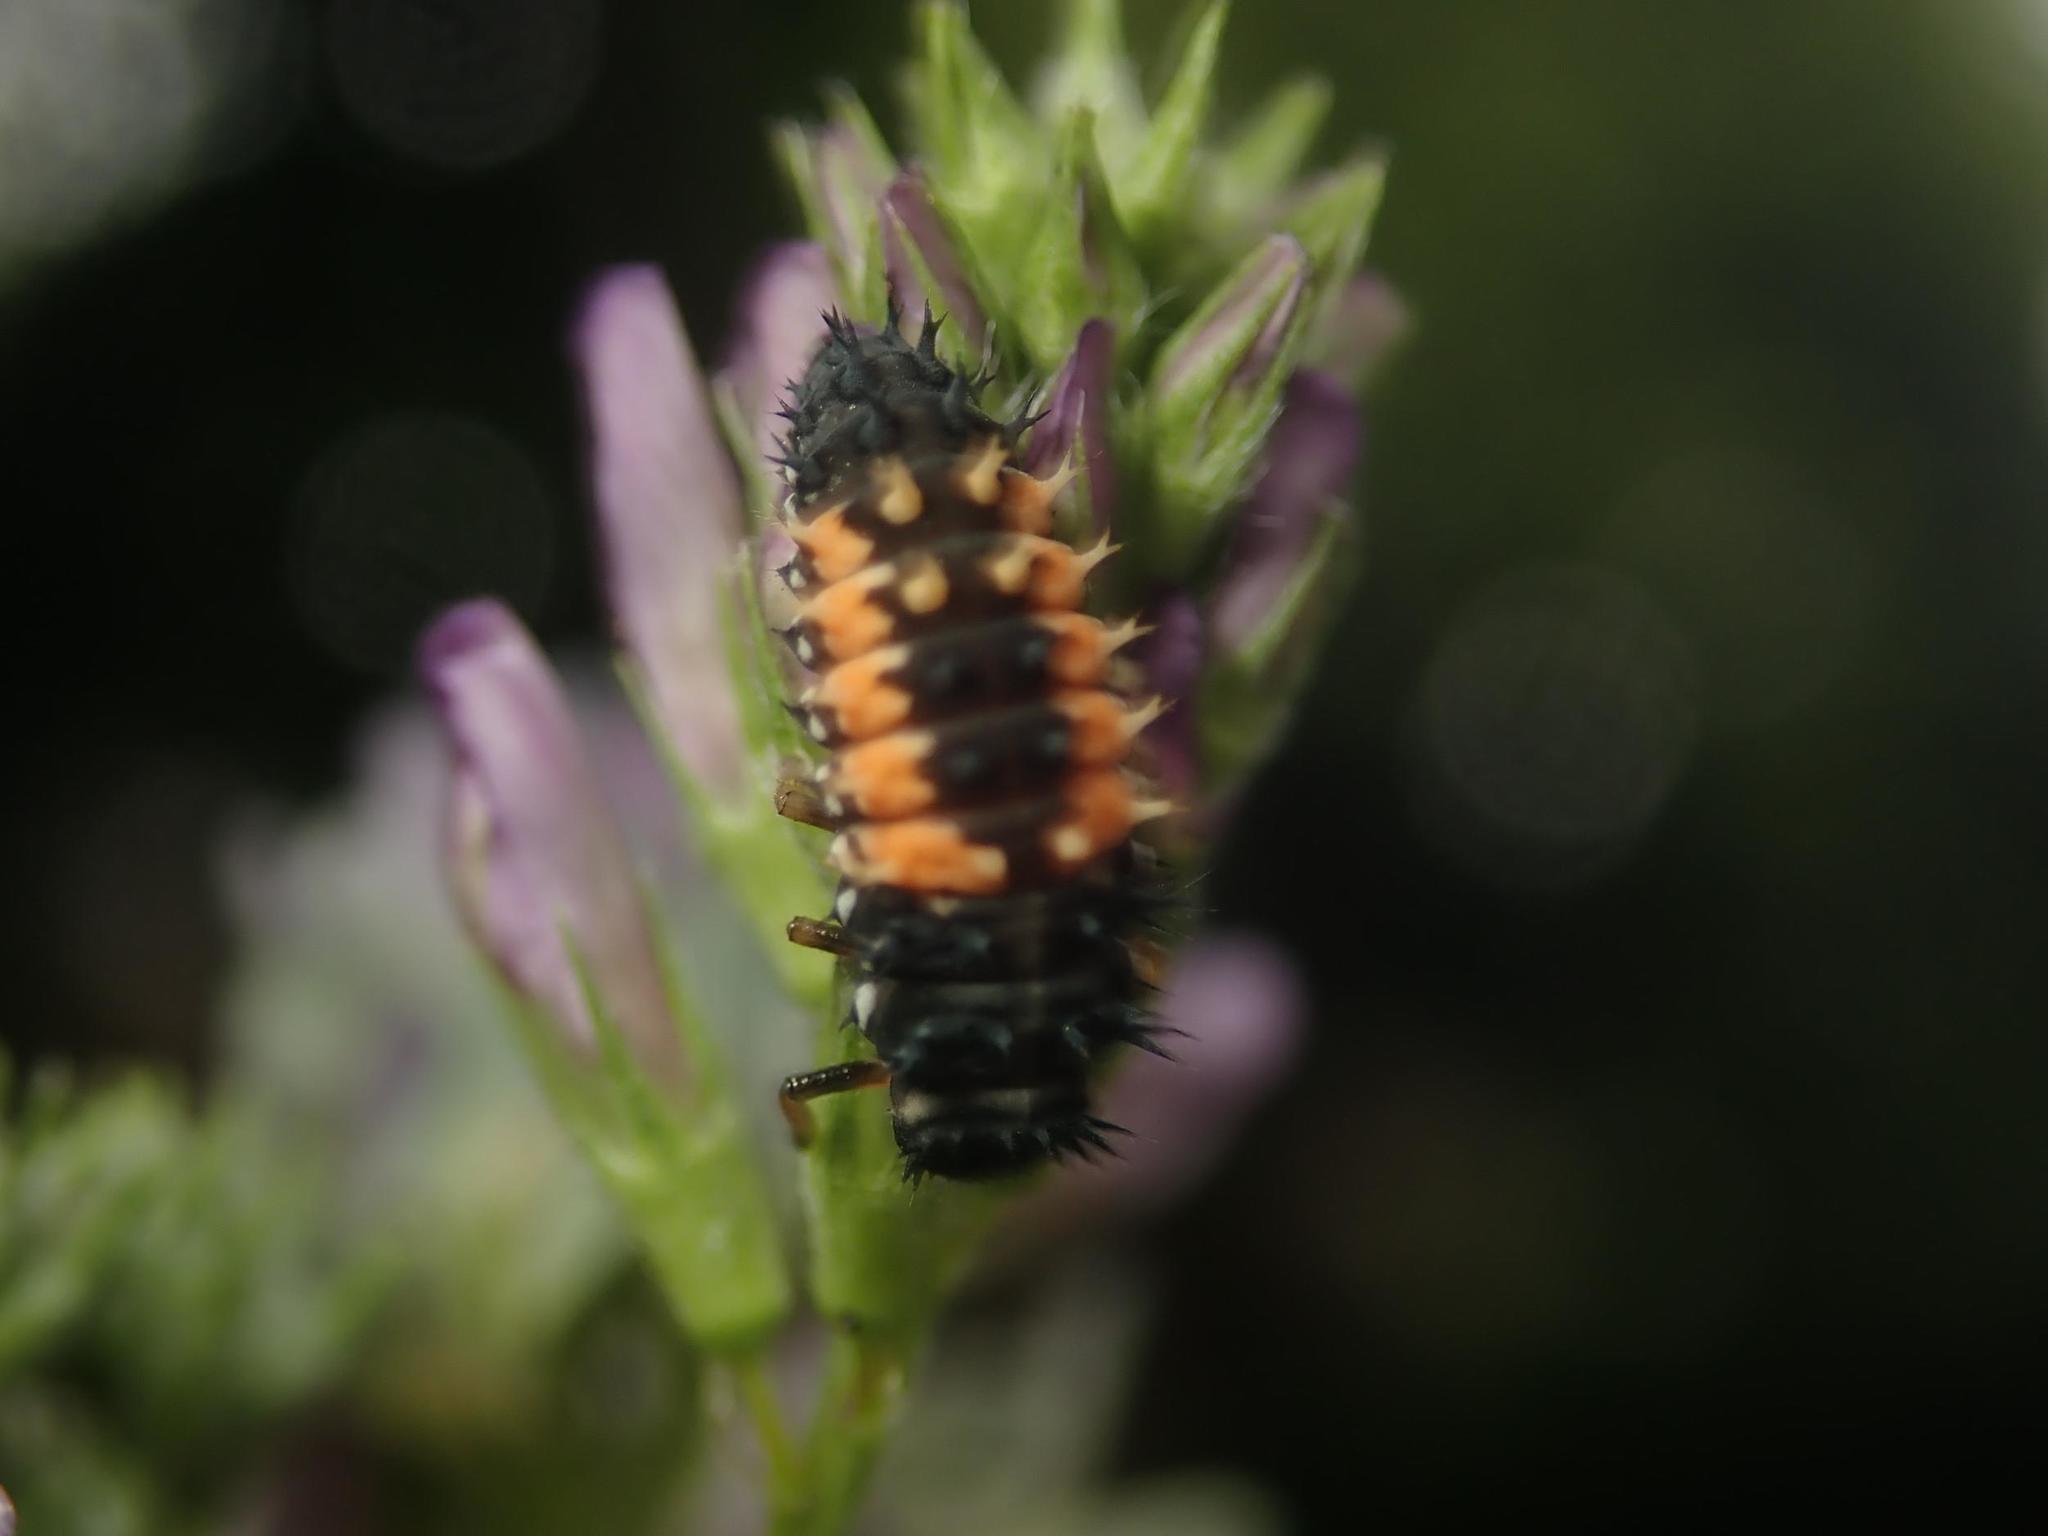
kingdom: Animalia
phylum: Arthropoda
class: Insecta
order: Coleoptera
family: Coccinellidae
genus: Harmonia
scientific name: Harmonia axyridis
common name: Harlequin ladybird
